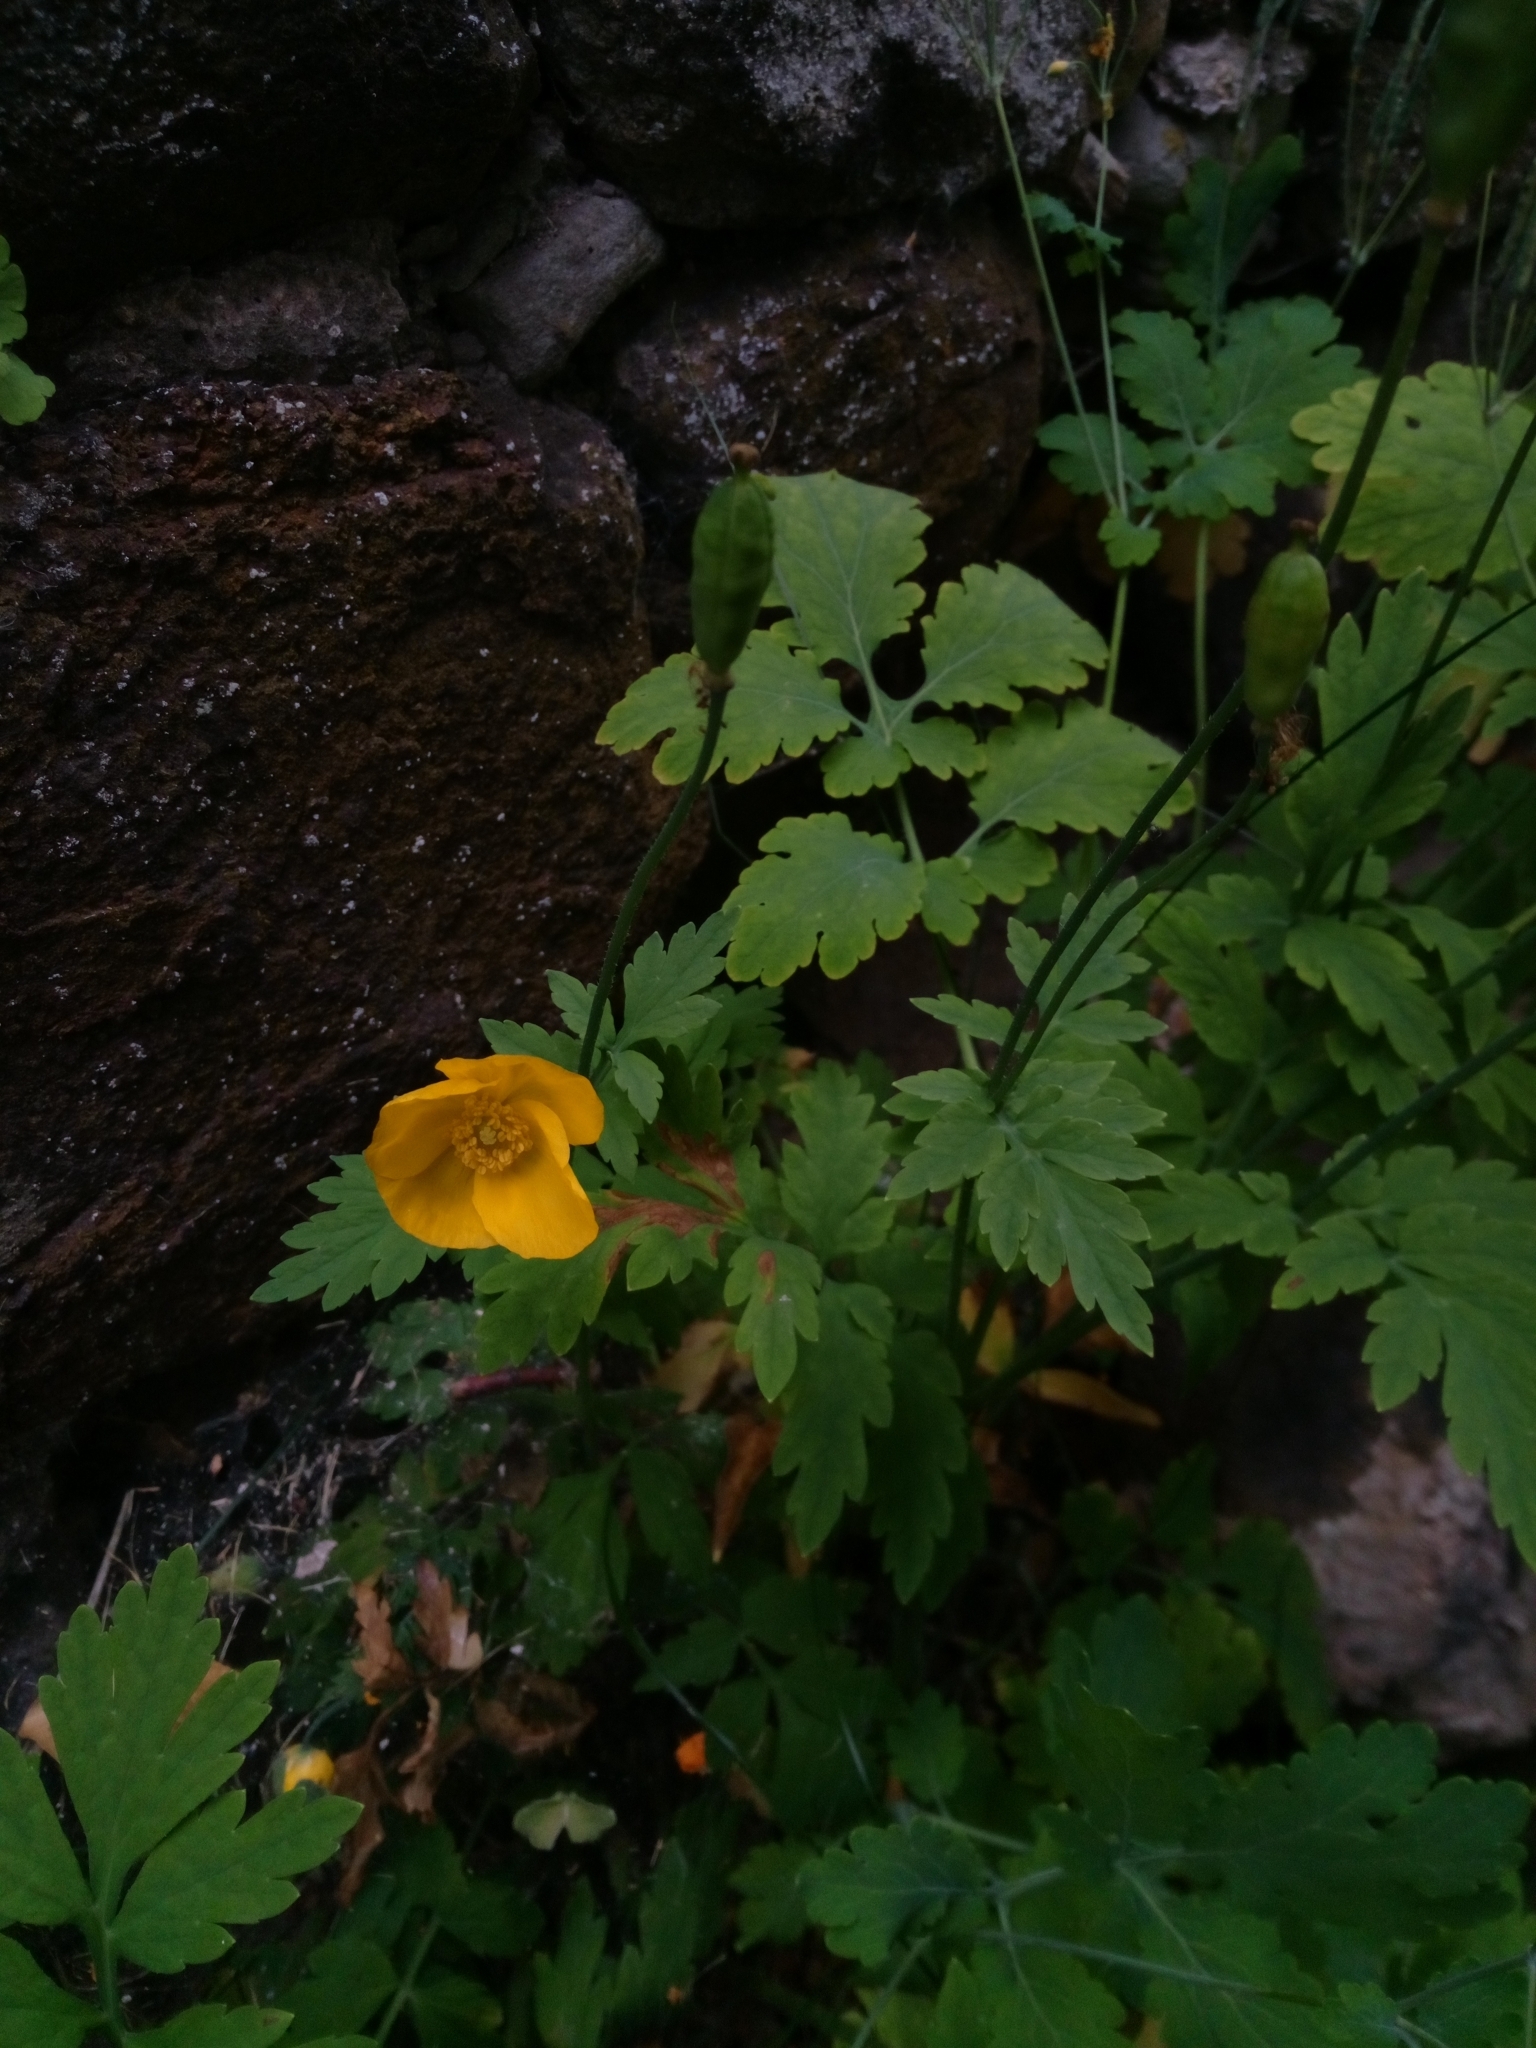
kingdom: Plantae
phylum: Tracheophyta
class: Magnoliopsida
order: Ranunculales
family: Papaveraceae
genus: Papaver
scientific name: Papaver cambricum
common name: Poppy
